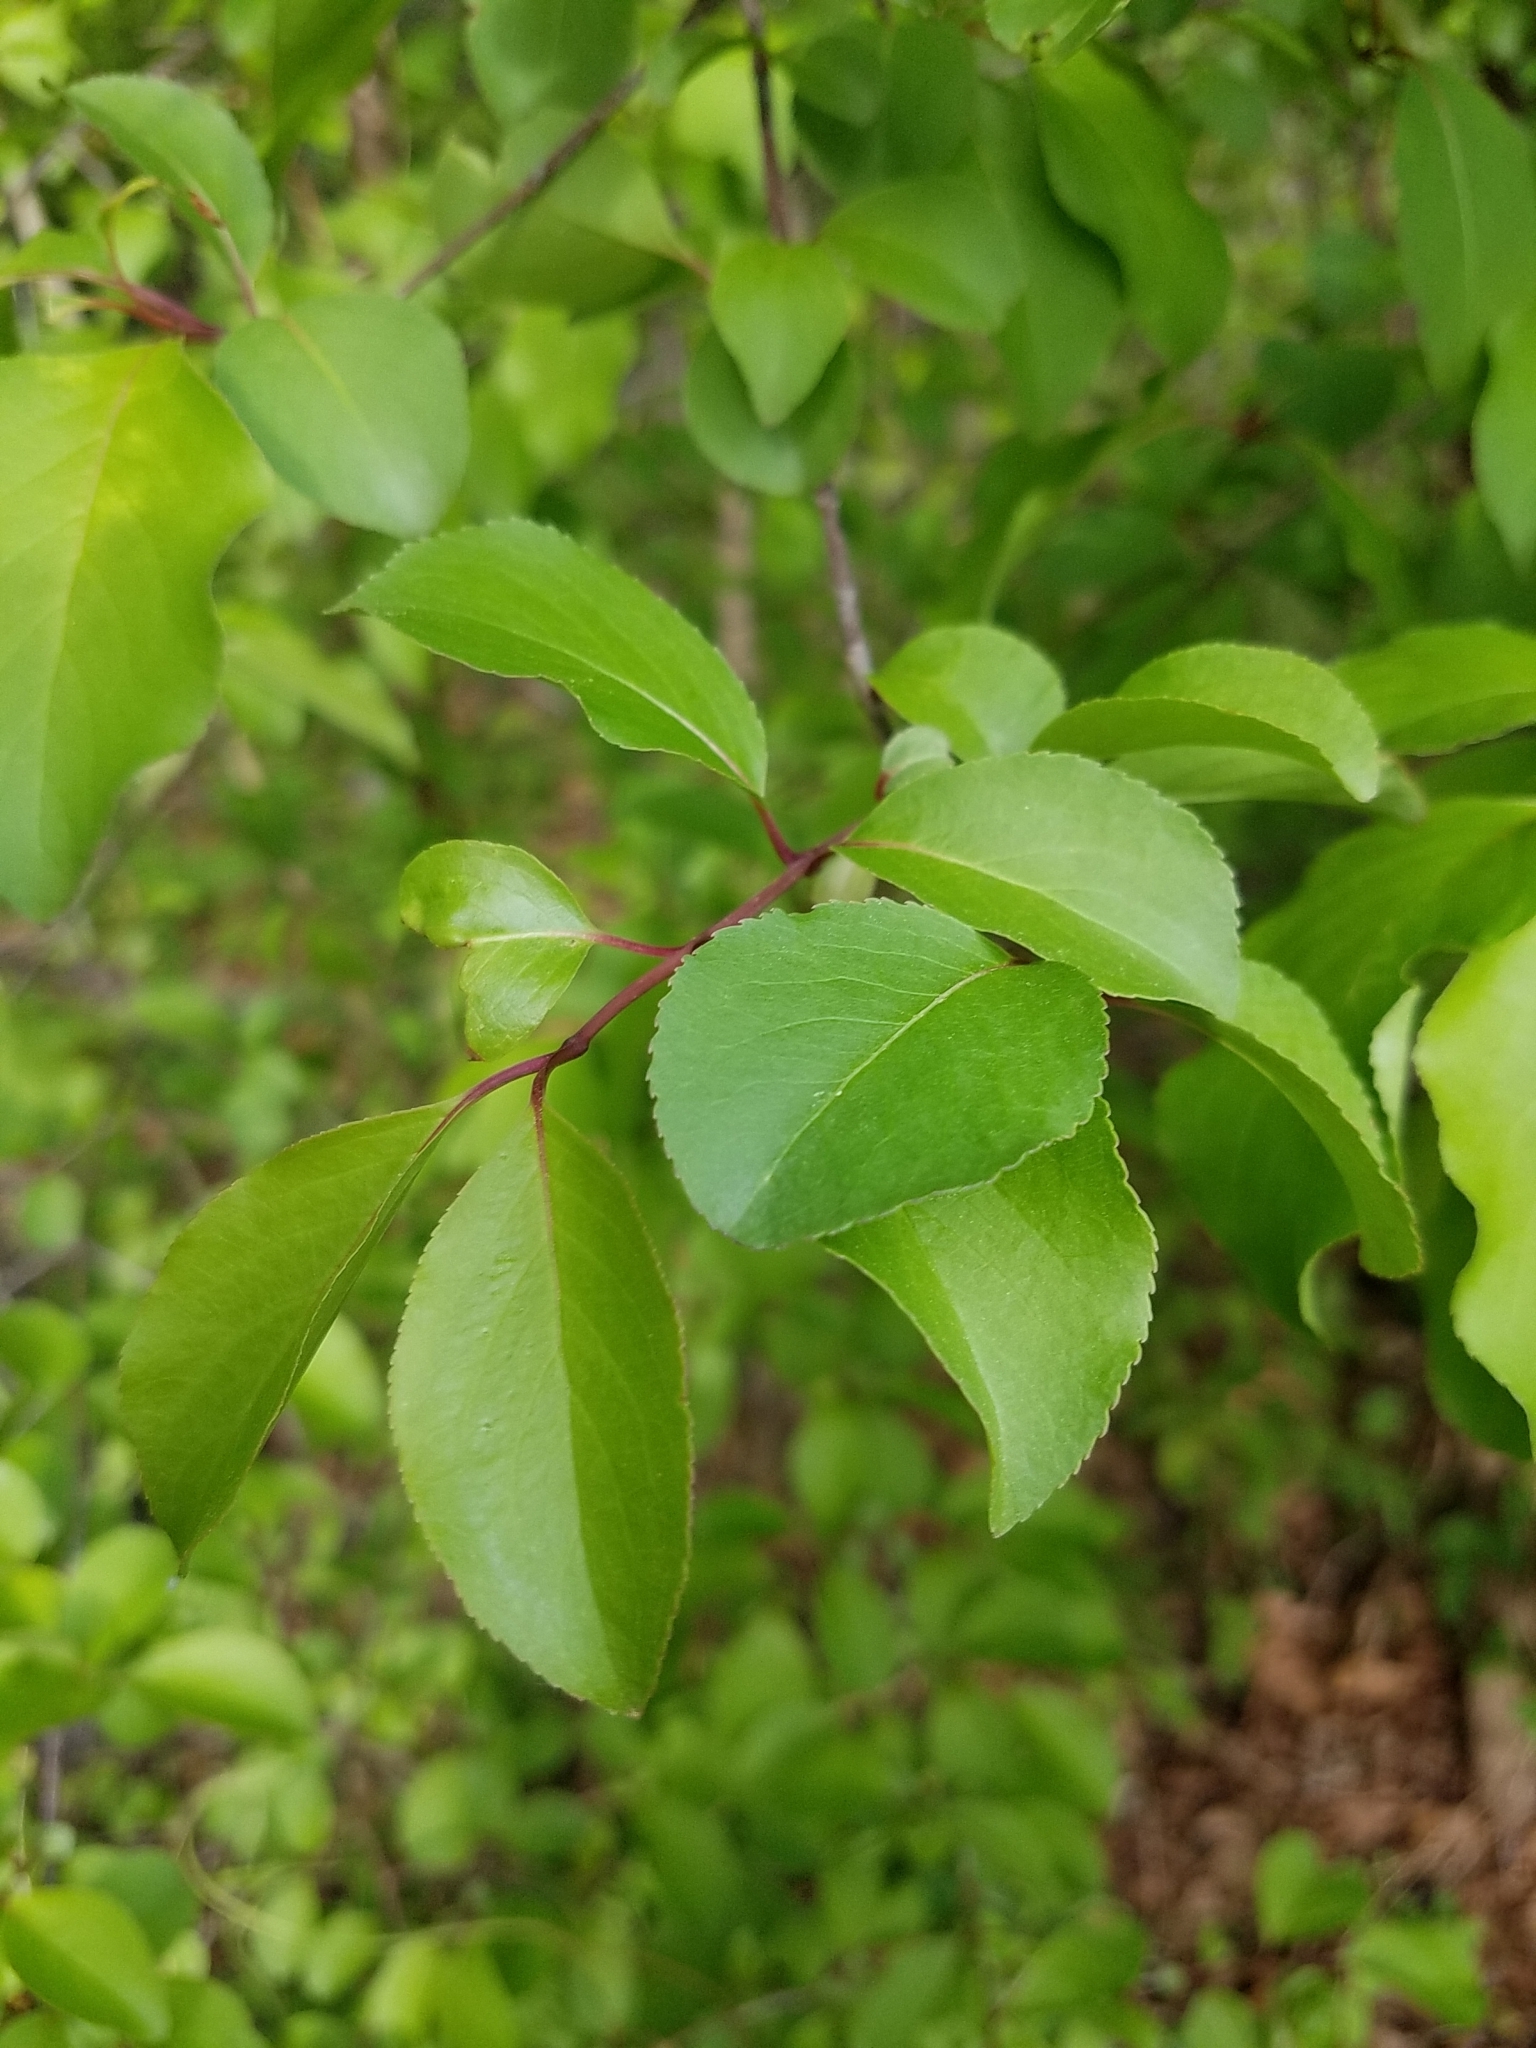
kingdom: Plantae
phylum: Tracheophyta
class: Magnoliopsida
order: Dipsacales
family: Viburnaceae
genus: Viburnum
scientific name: Viburnum prunifolium
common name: Black haw
